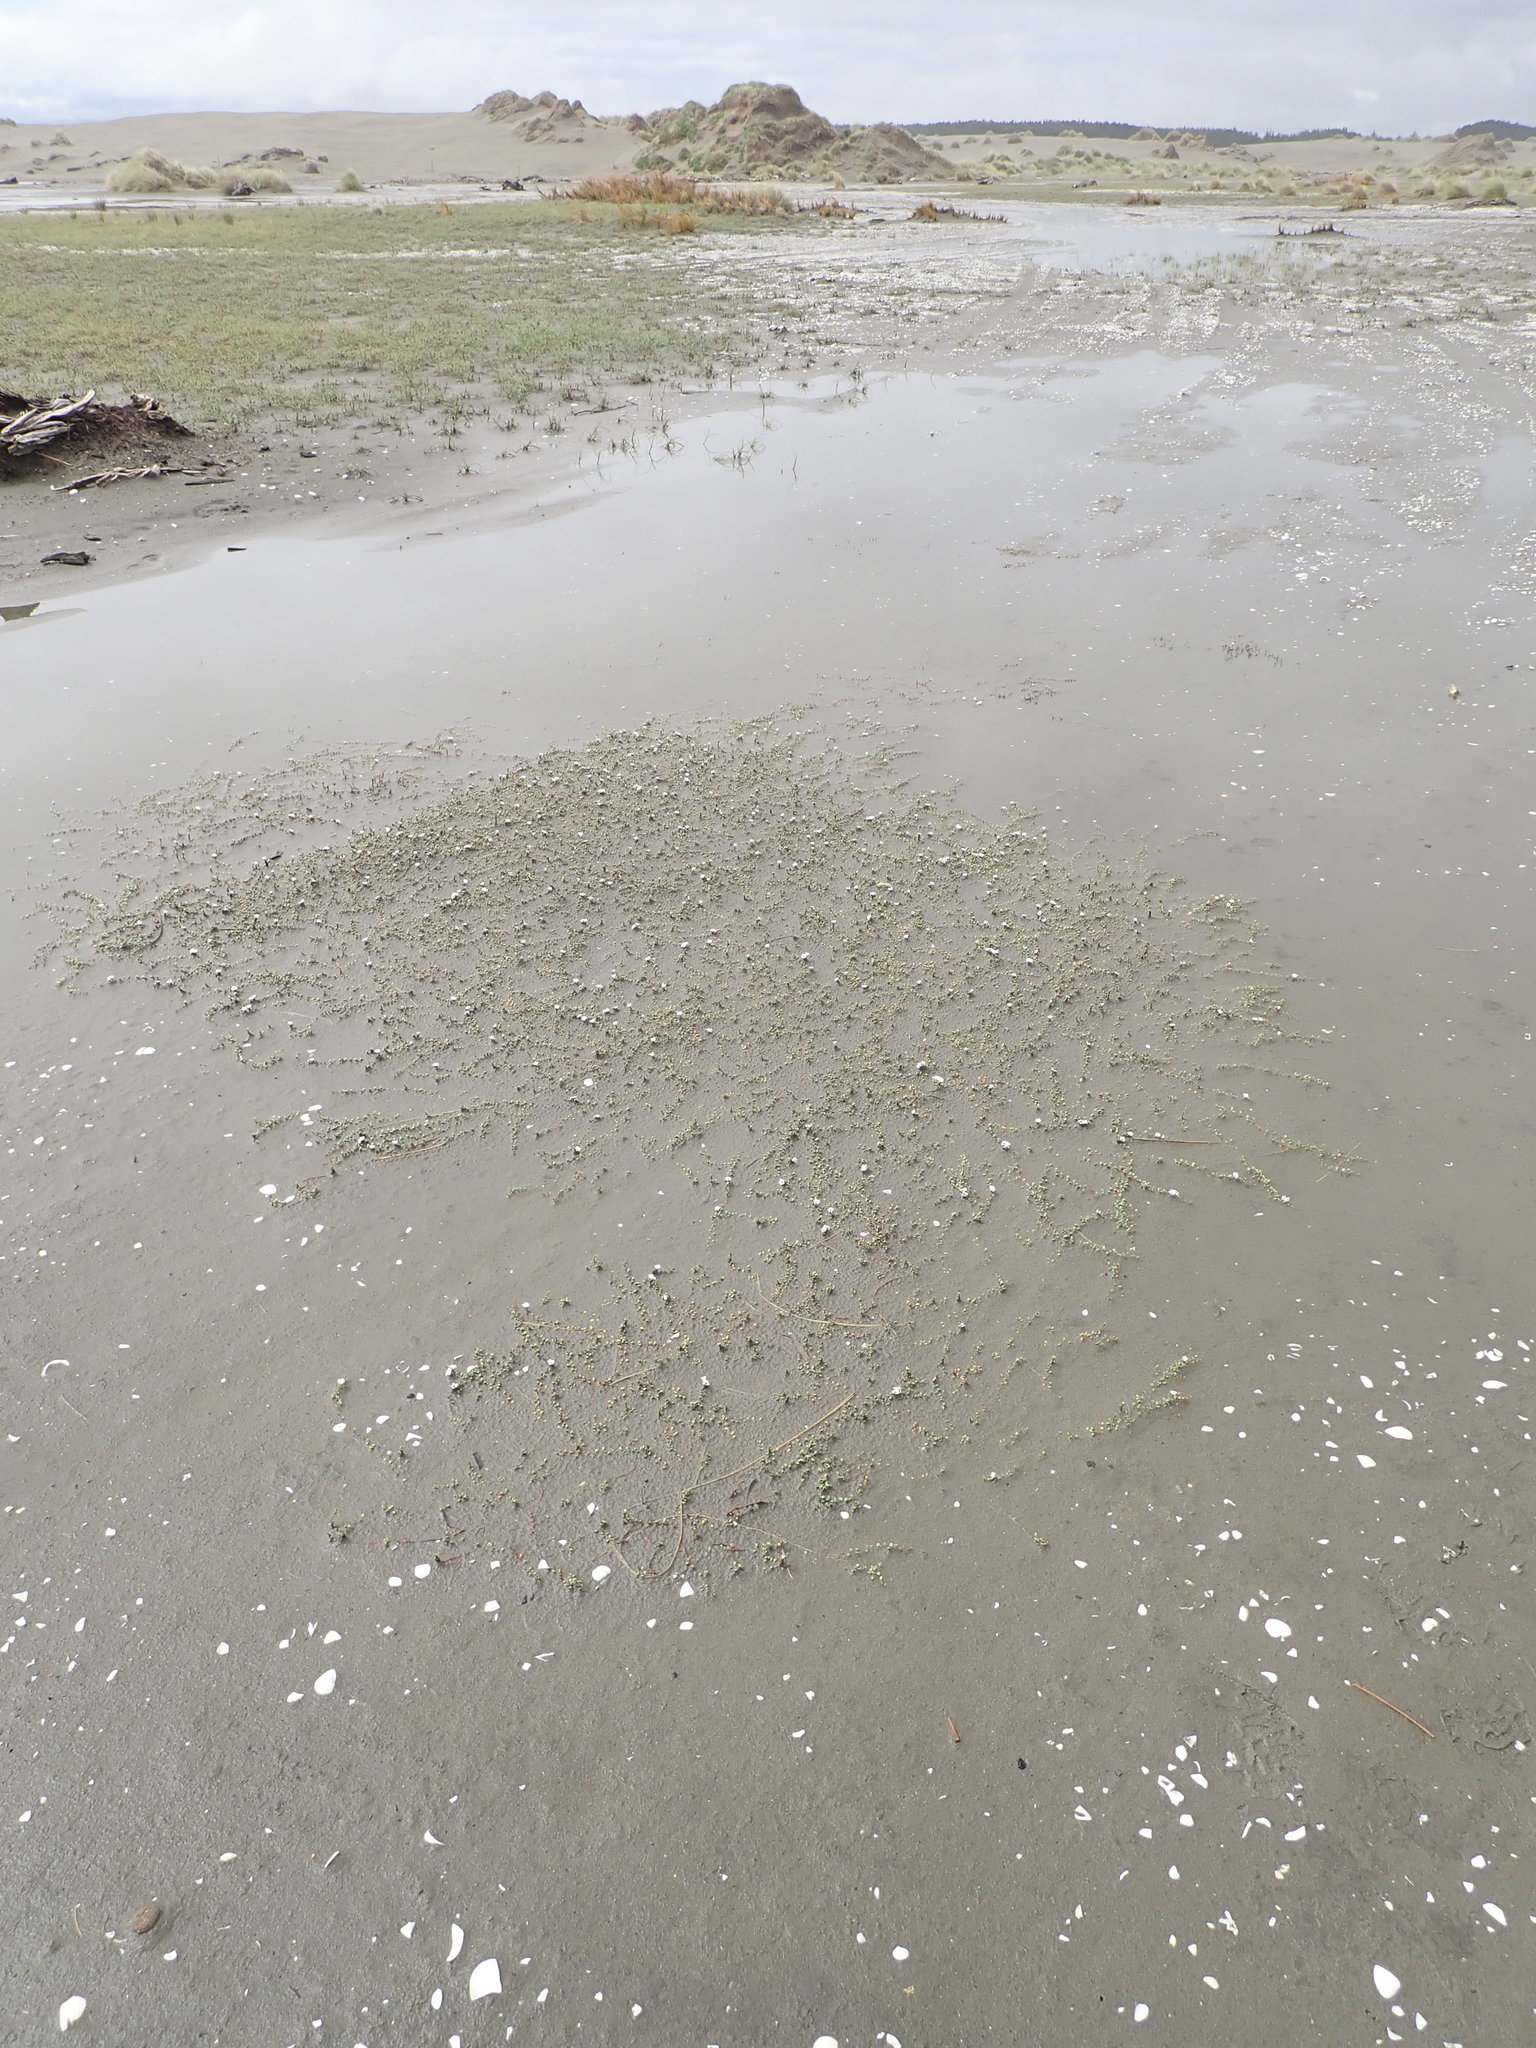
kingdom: Plantae
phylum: Tracheophyta
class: Magnoliopsida
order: Ericales
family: Primulaceae
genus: Samolus
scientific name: Samolus repens
